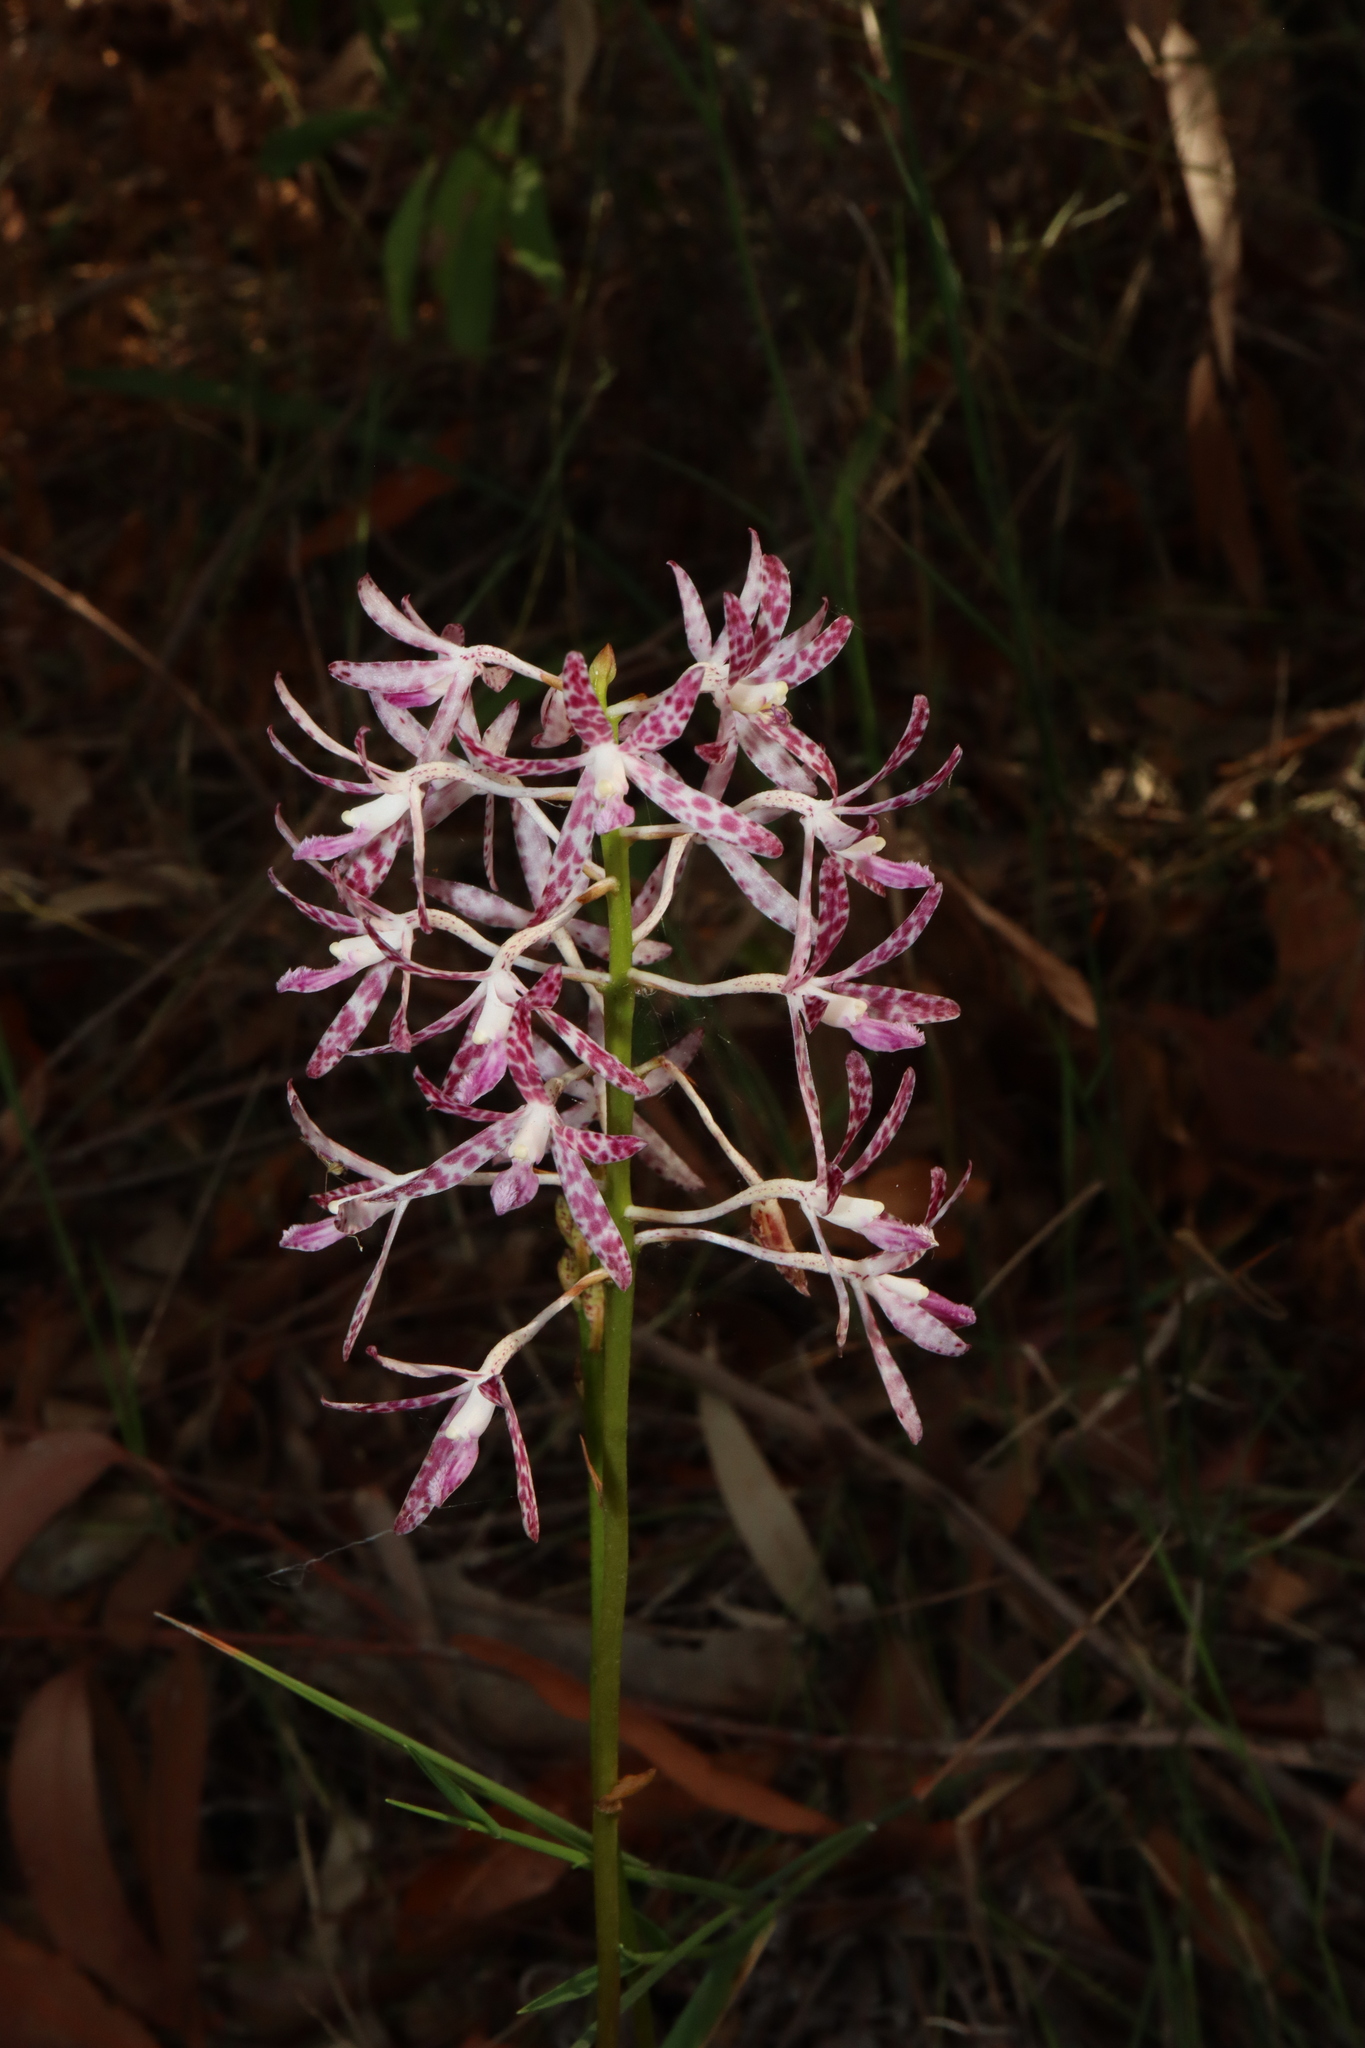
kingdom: Plantae
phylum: Tracheophyta
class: Liliopsida
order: Asparagales
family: Orchidaceae
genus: Dipodium
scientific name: Dipodium variegatum
